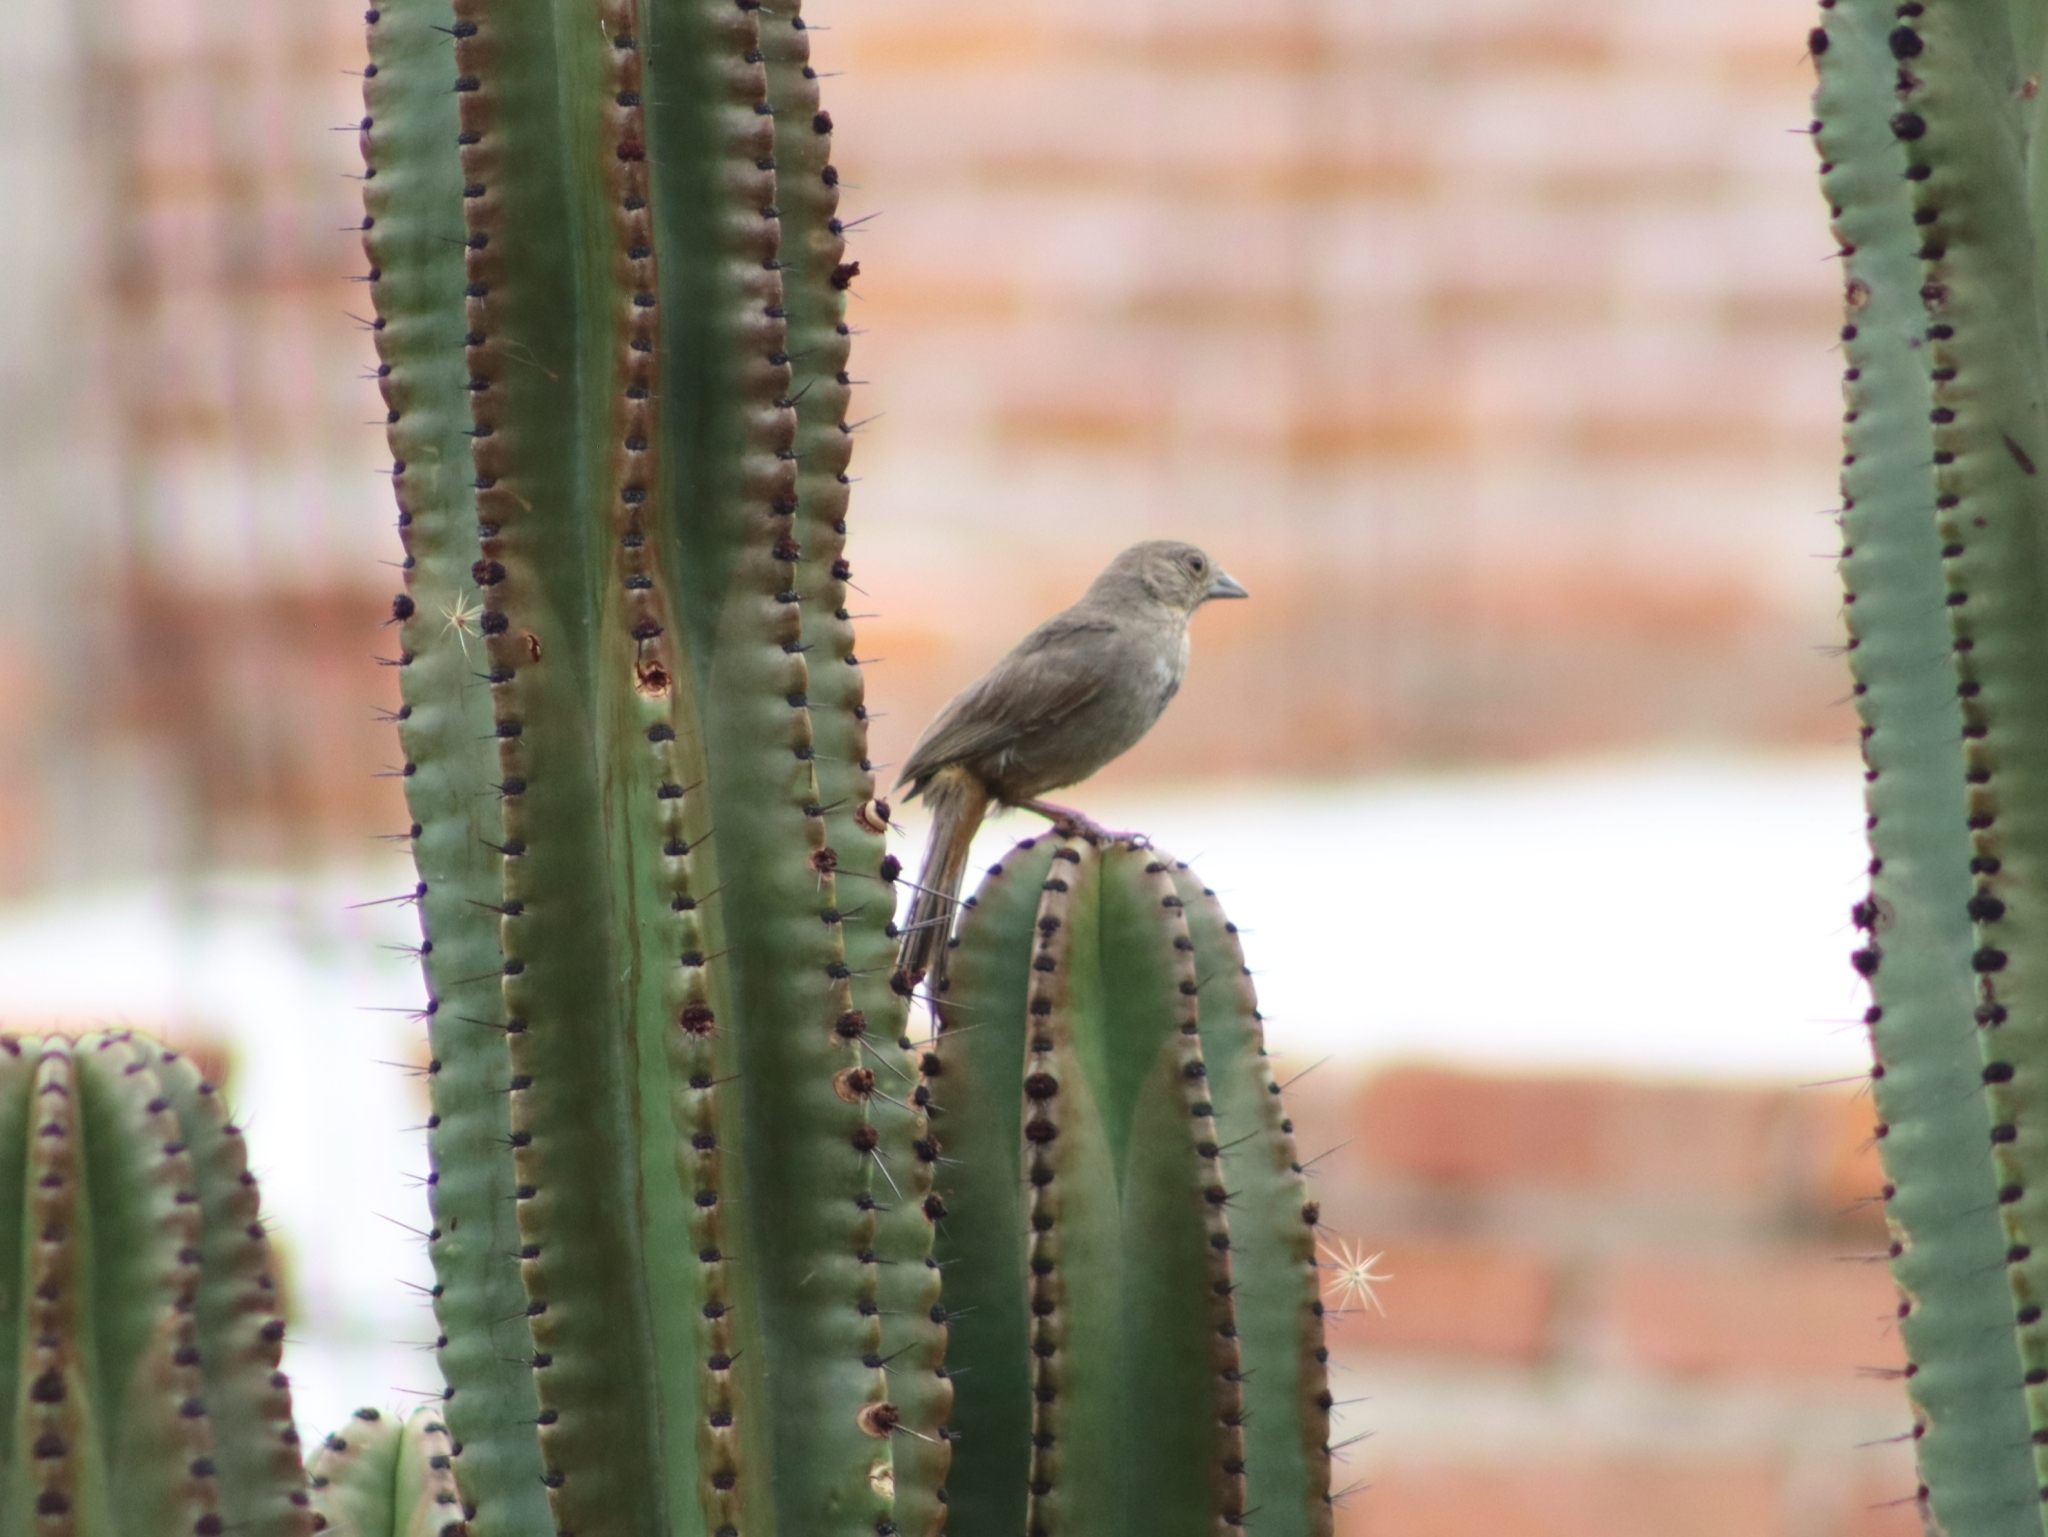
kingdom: Animalia
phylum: Chordata
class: Aves
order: Passeriformes
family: Passerellidae
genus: Melozone
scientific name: Melozone fusca
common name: Canyon towhee
